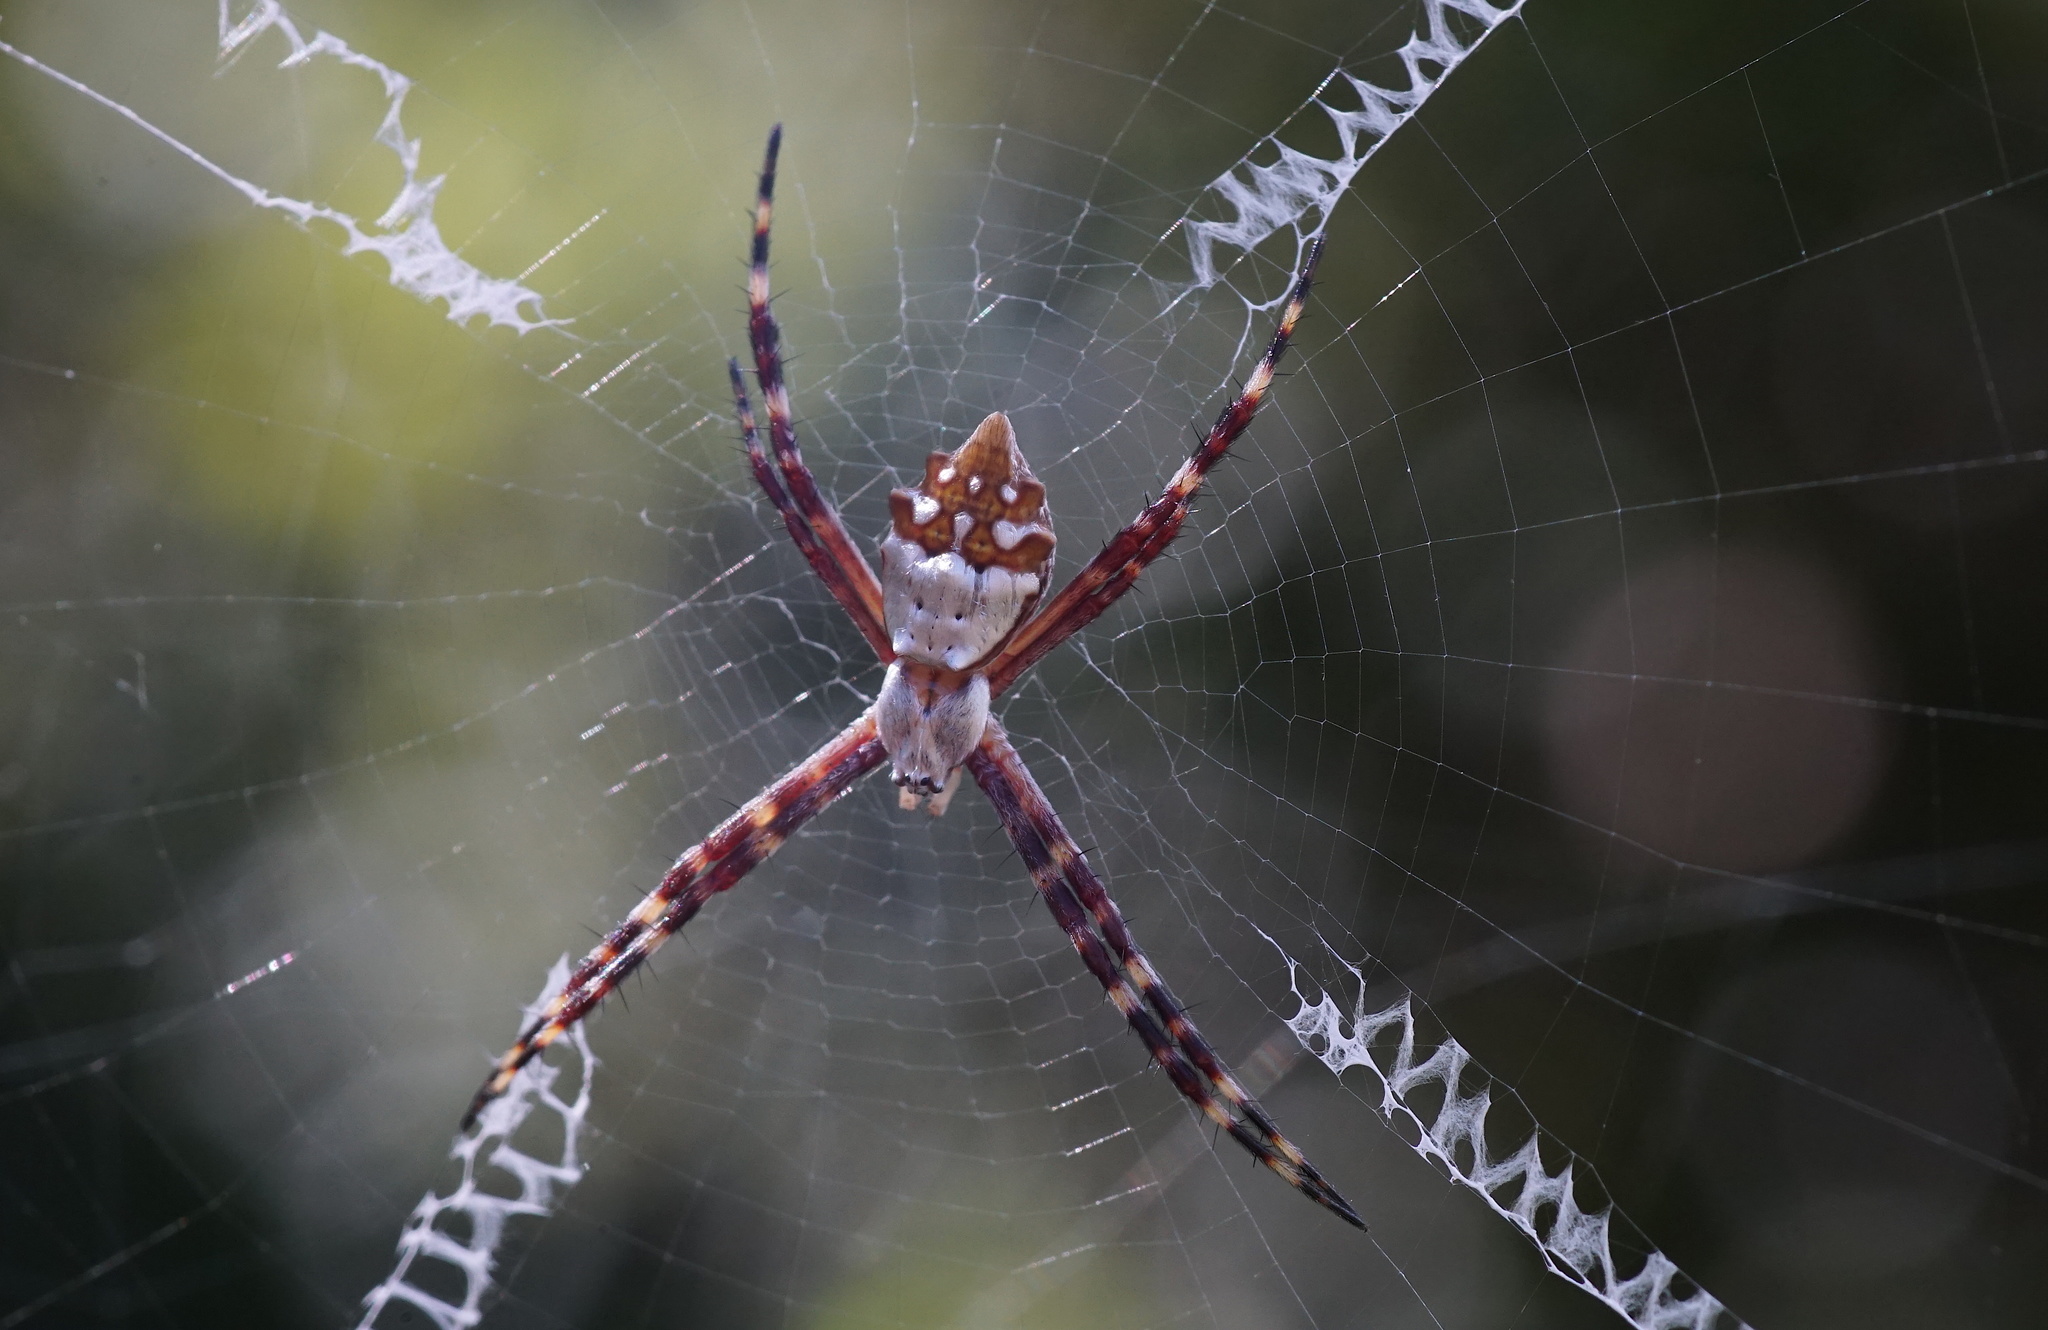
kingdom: Animalia
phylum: Arthropoda
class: Arachnida
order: Araneae
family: Araneidae
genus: Argiope
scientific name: Argiope argentata
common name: Orb weavers
